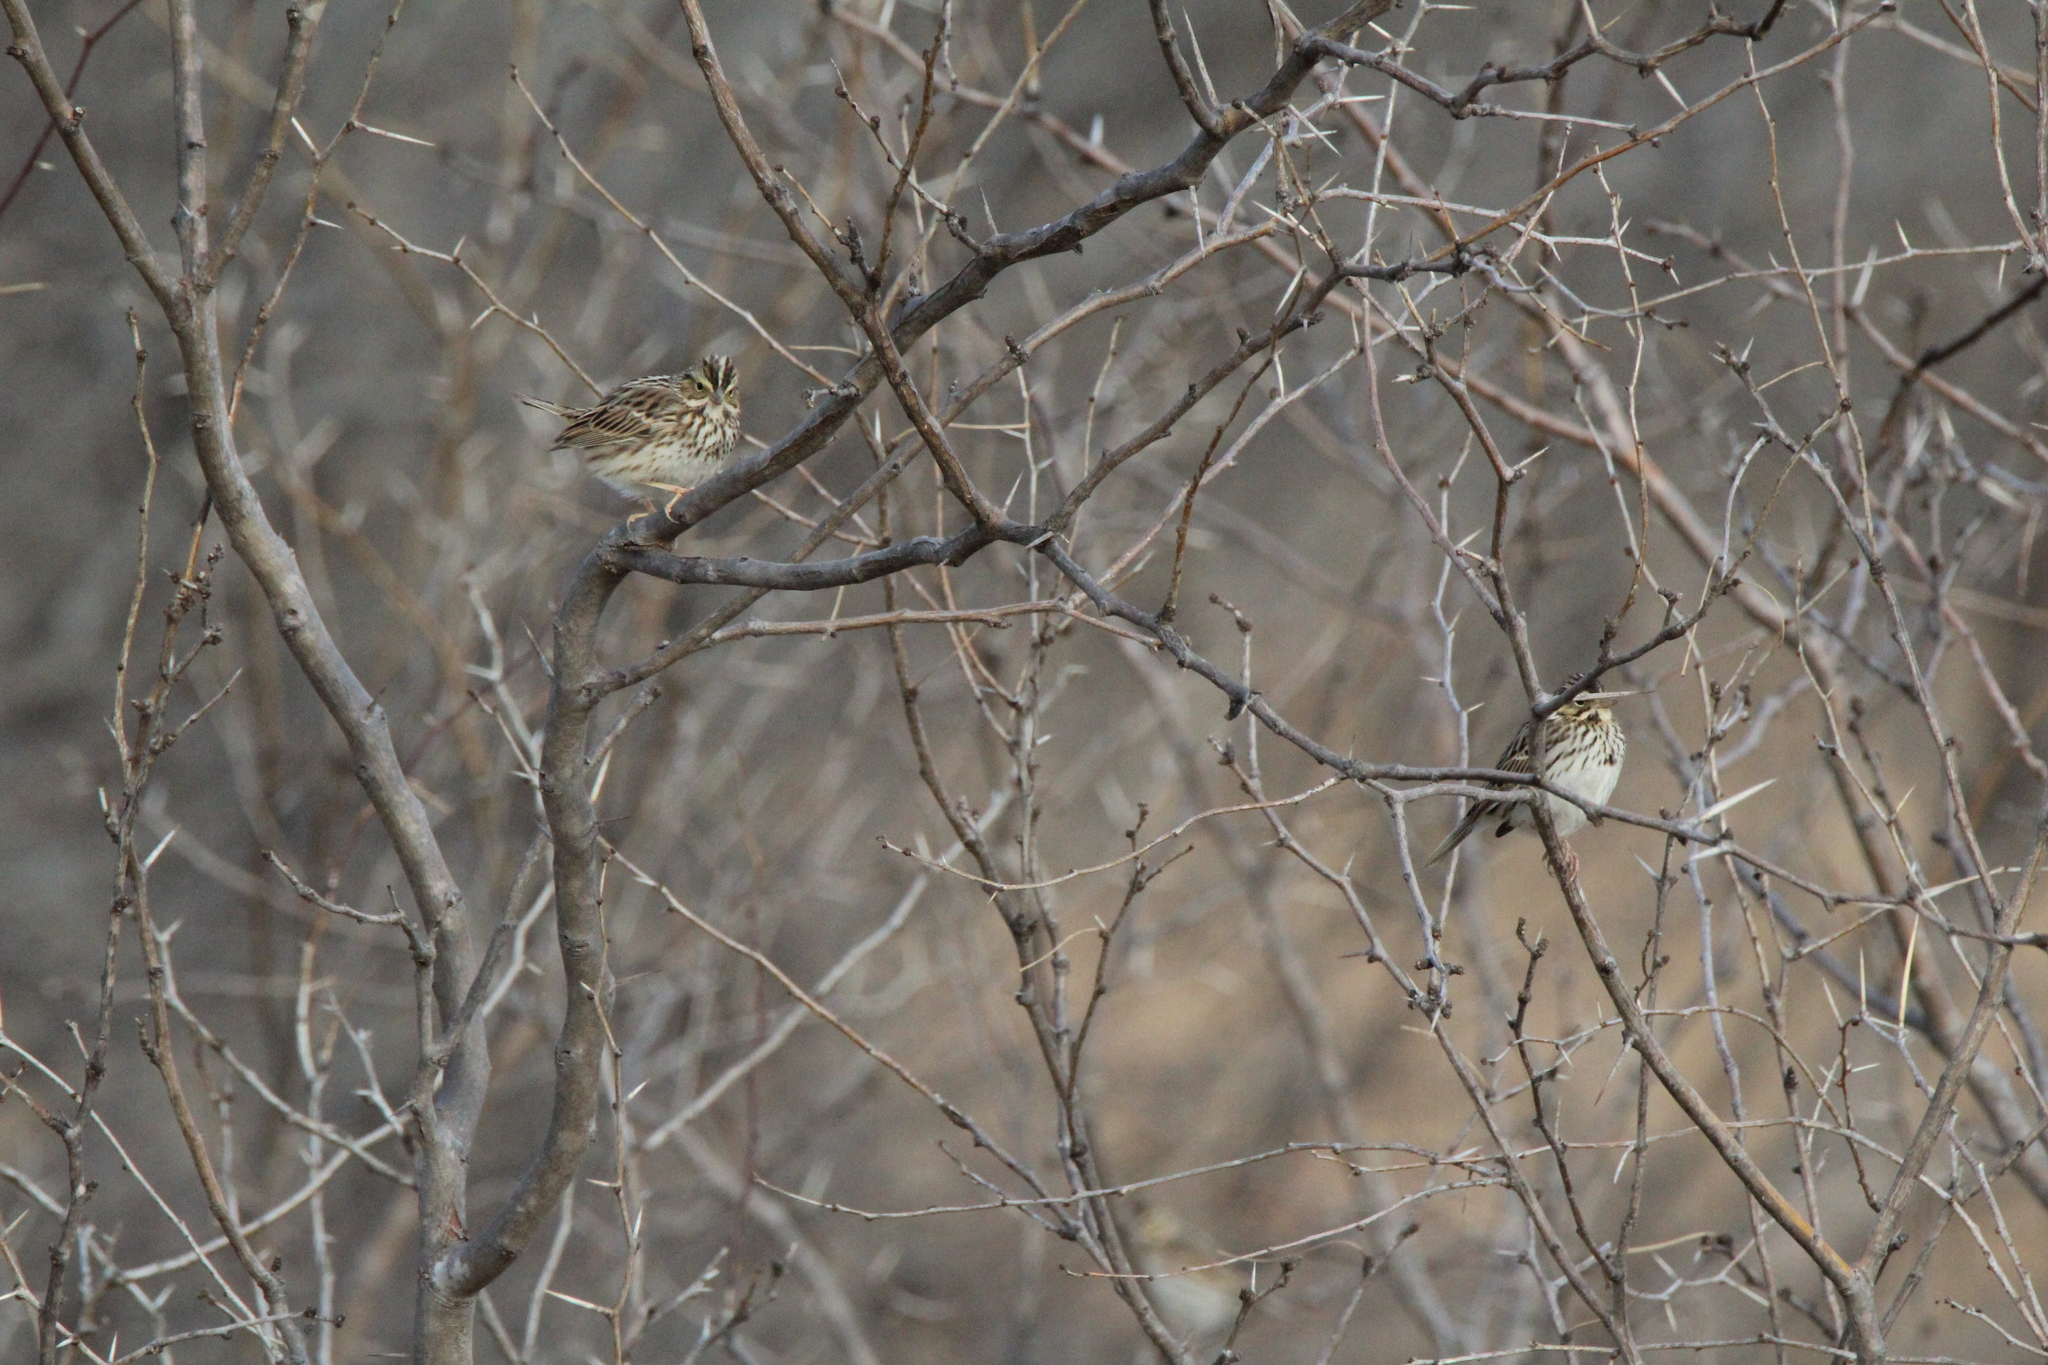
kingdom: Animalia
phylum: Chordata
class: Aves
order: Passeriformes
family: Passerellidae
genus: Passerculus
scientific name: Passerculus sandwichensis
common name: Savannah sparrow
